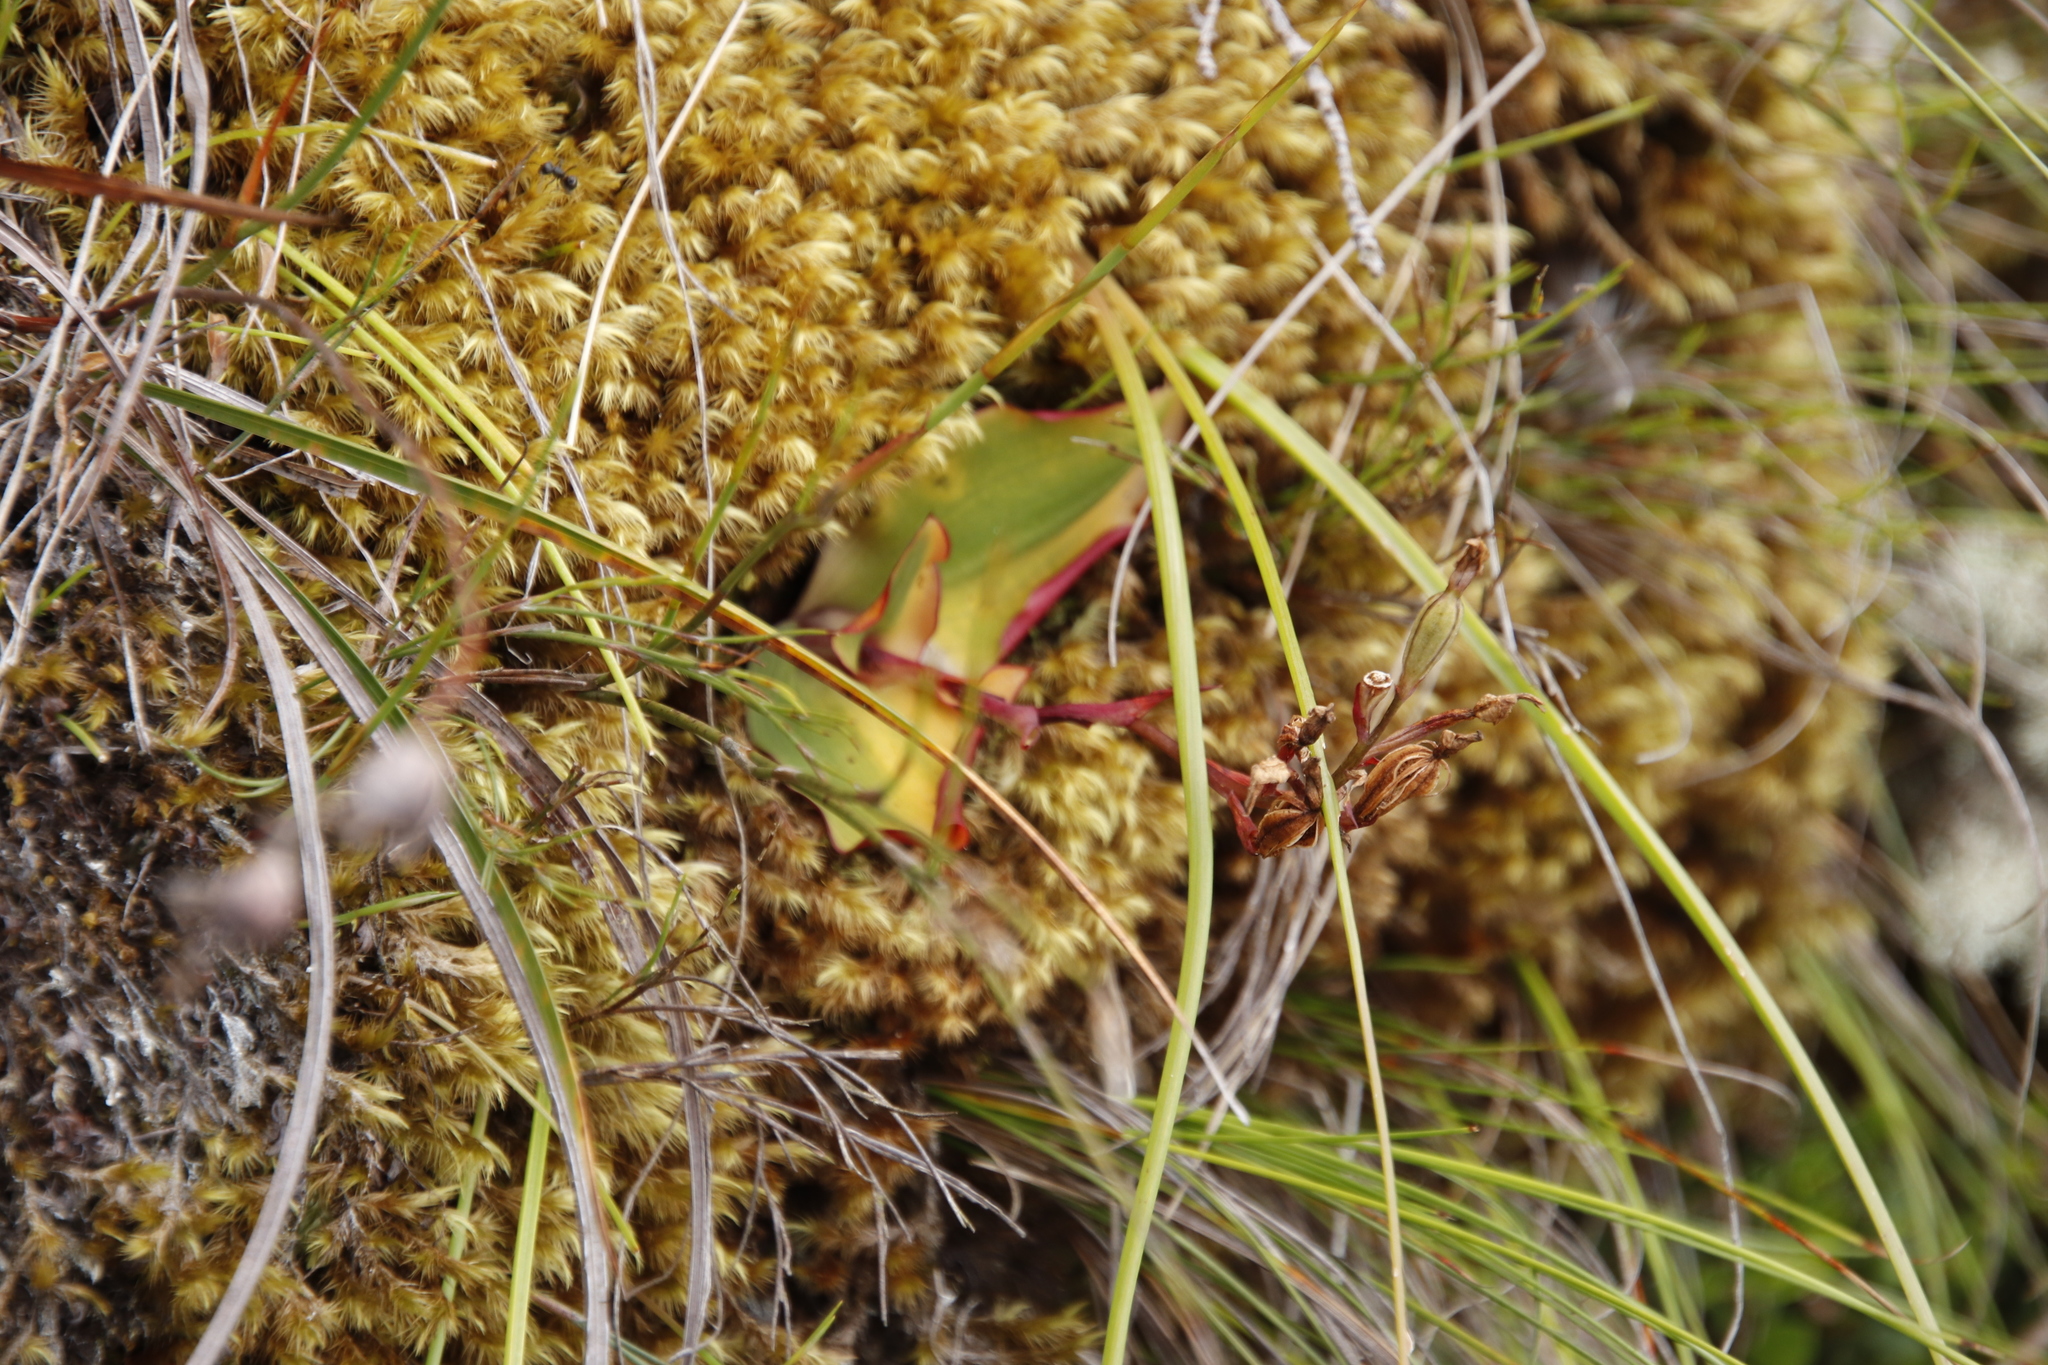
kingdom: Plantae
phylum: Tracheophyta
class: Liliopsida
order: Asparagales
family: Orchidaceae
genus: Disa
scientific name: Disa rosea
